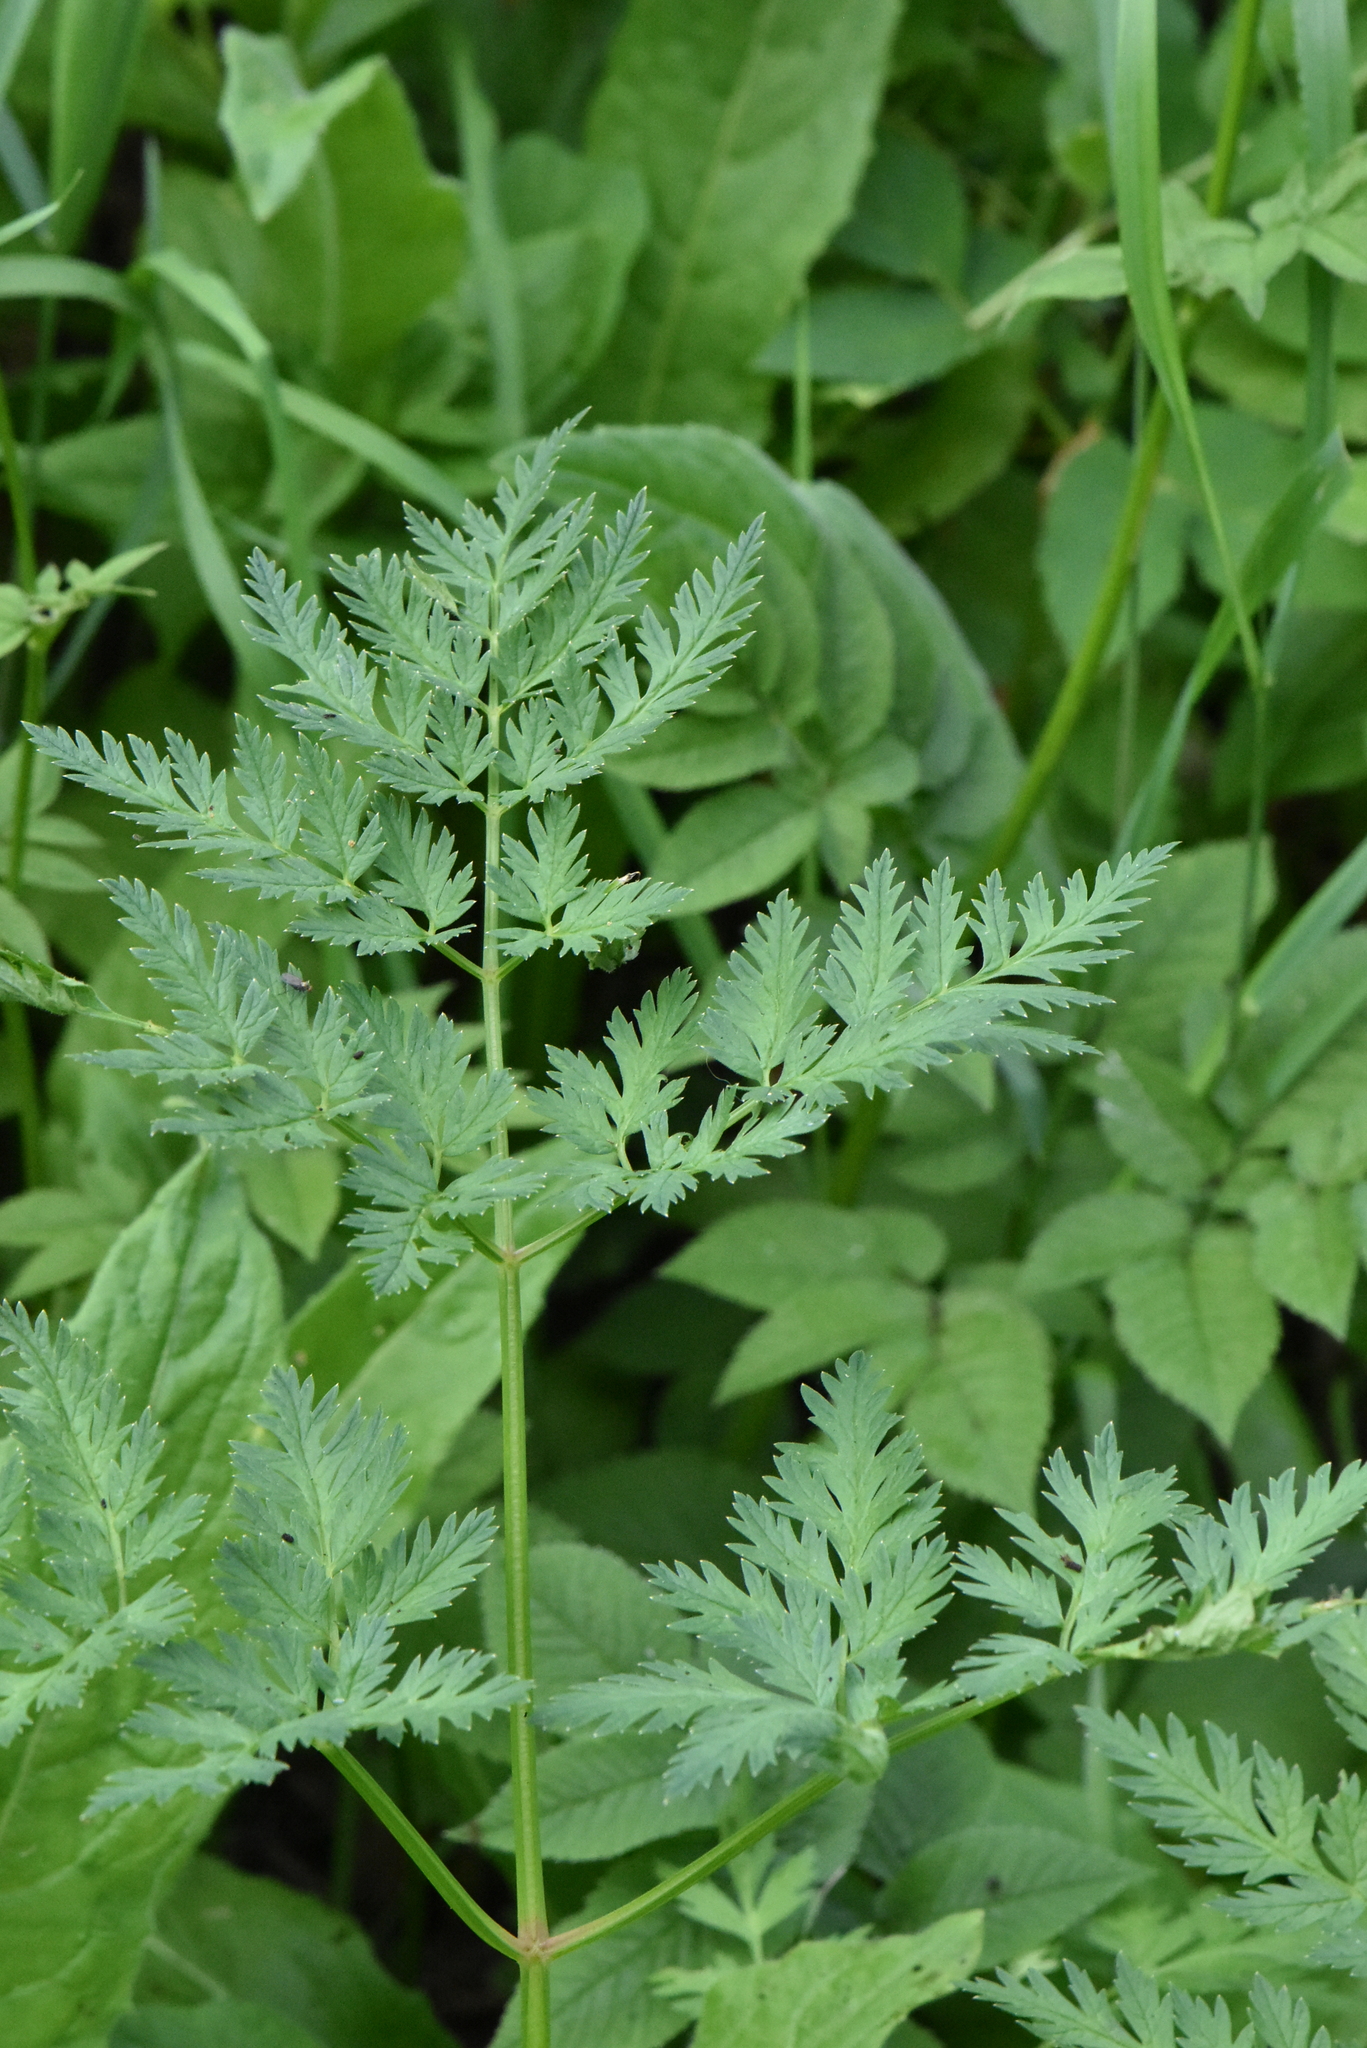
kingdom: Plantae
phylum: Tracheophyta
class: Magnoliopsida
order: Apiales
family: Apiaceae
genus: Anthriscus
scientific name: Anthriscus sylvestris
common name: Cow parsley
